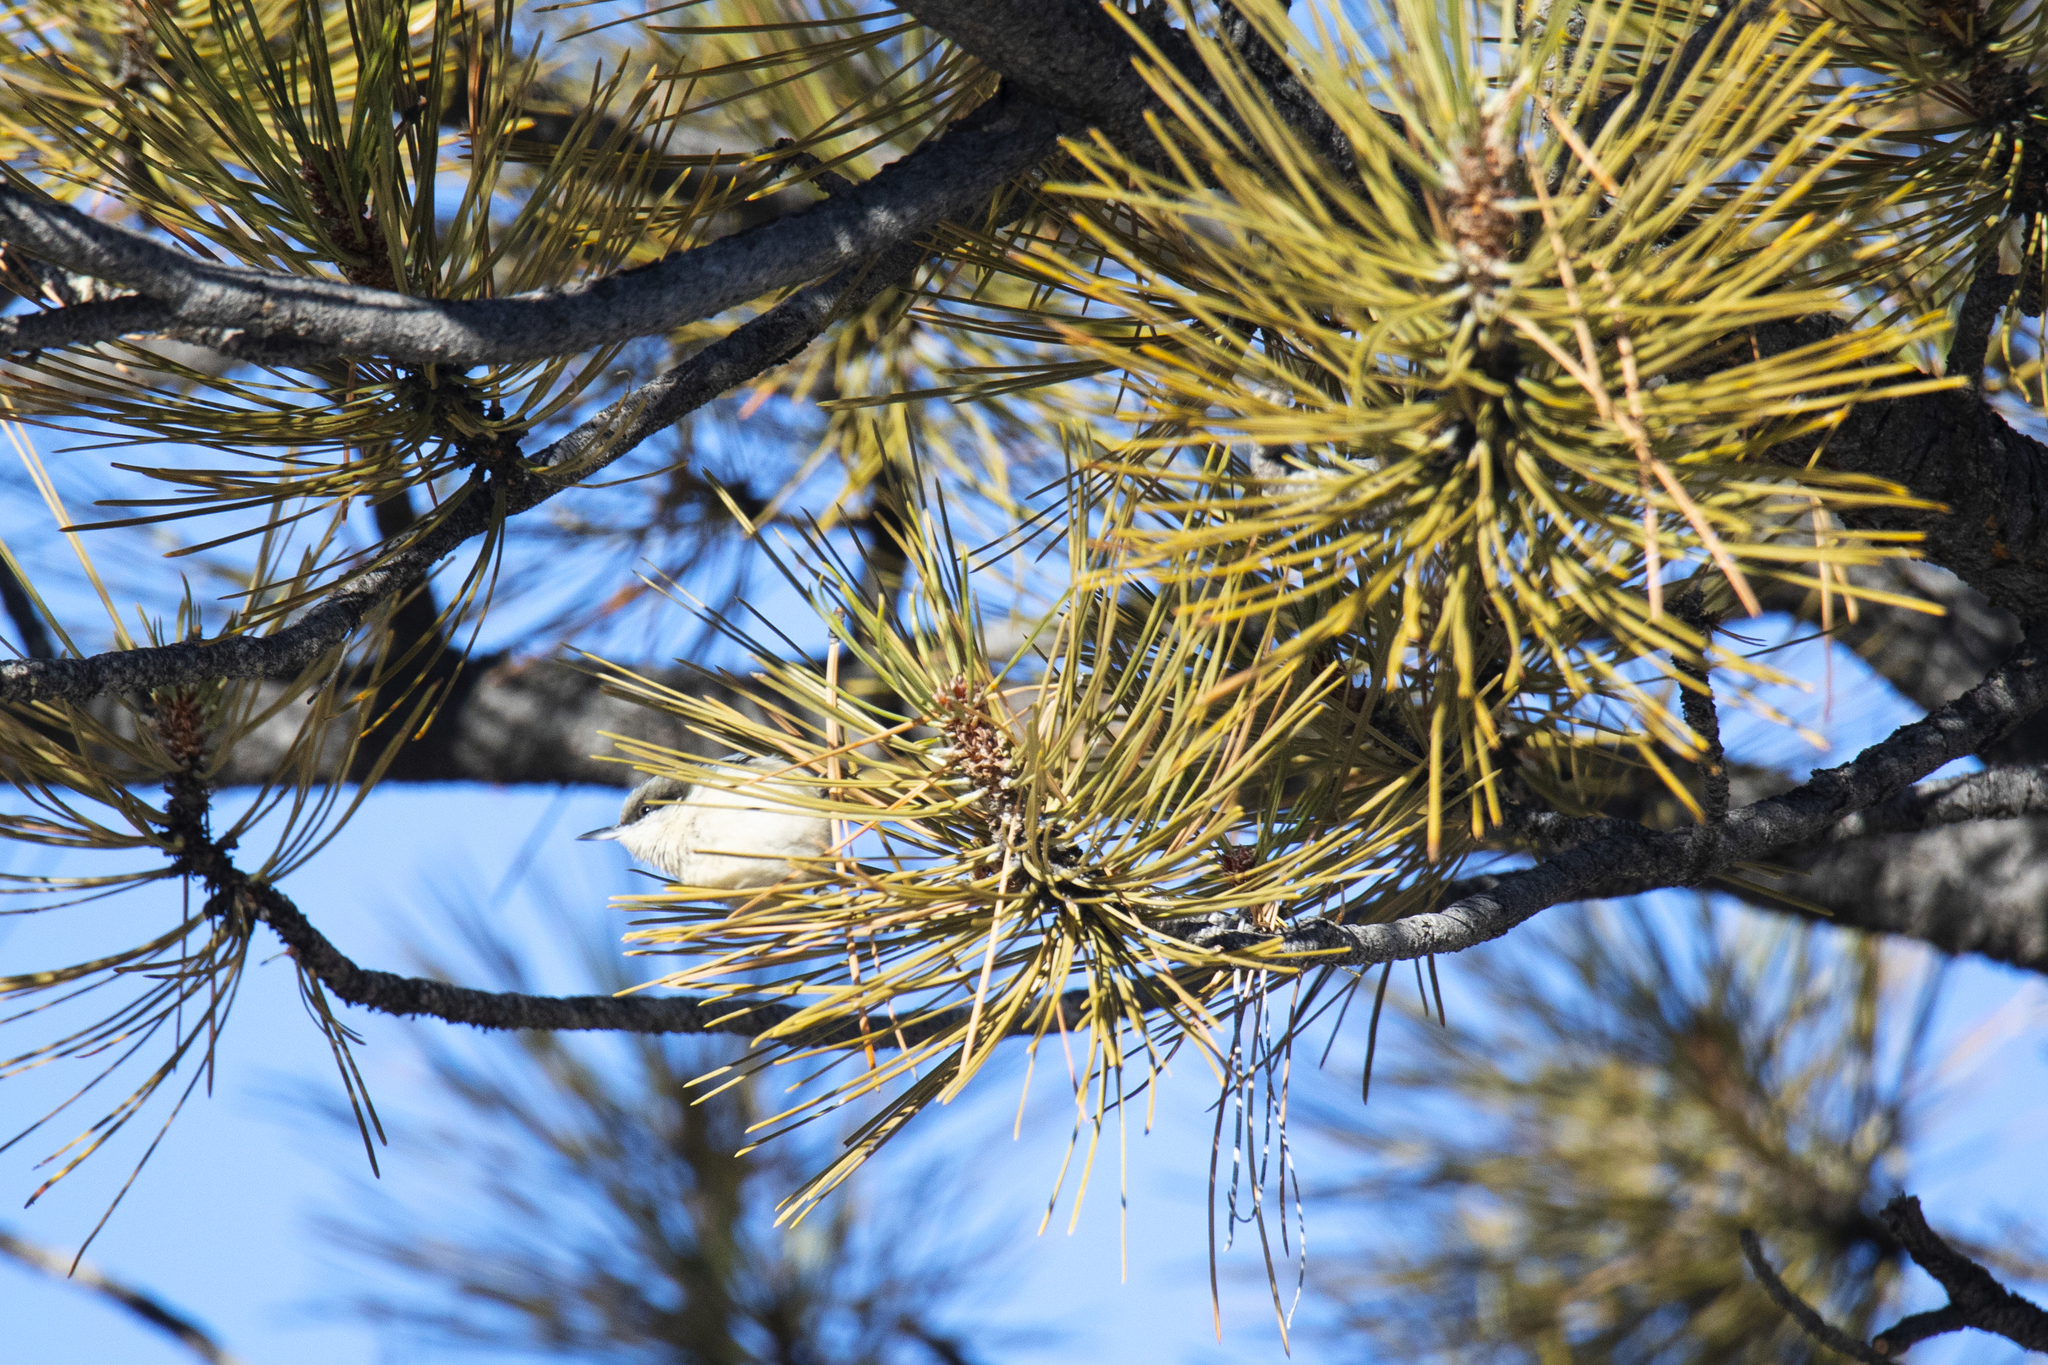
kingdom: Animalia
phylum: Chordata
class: Aves
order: Passeriformes
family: Sittidae
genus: Sitta
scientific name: Sitta pygmaea
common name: Pygmy nuthatch
